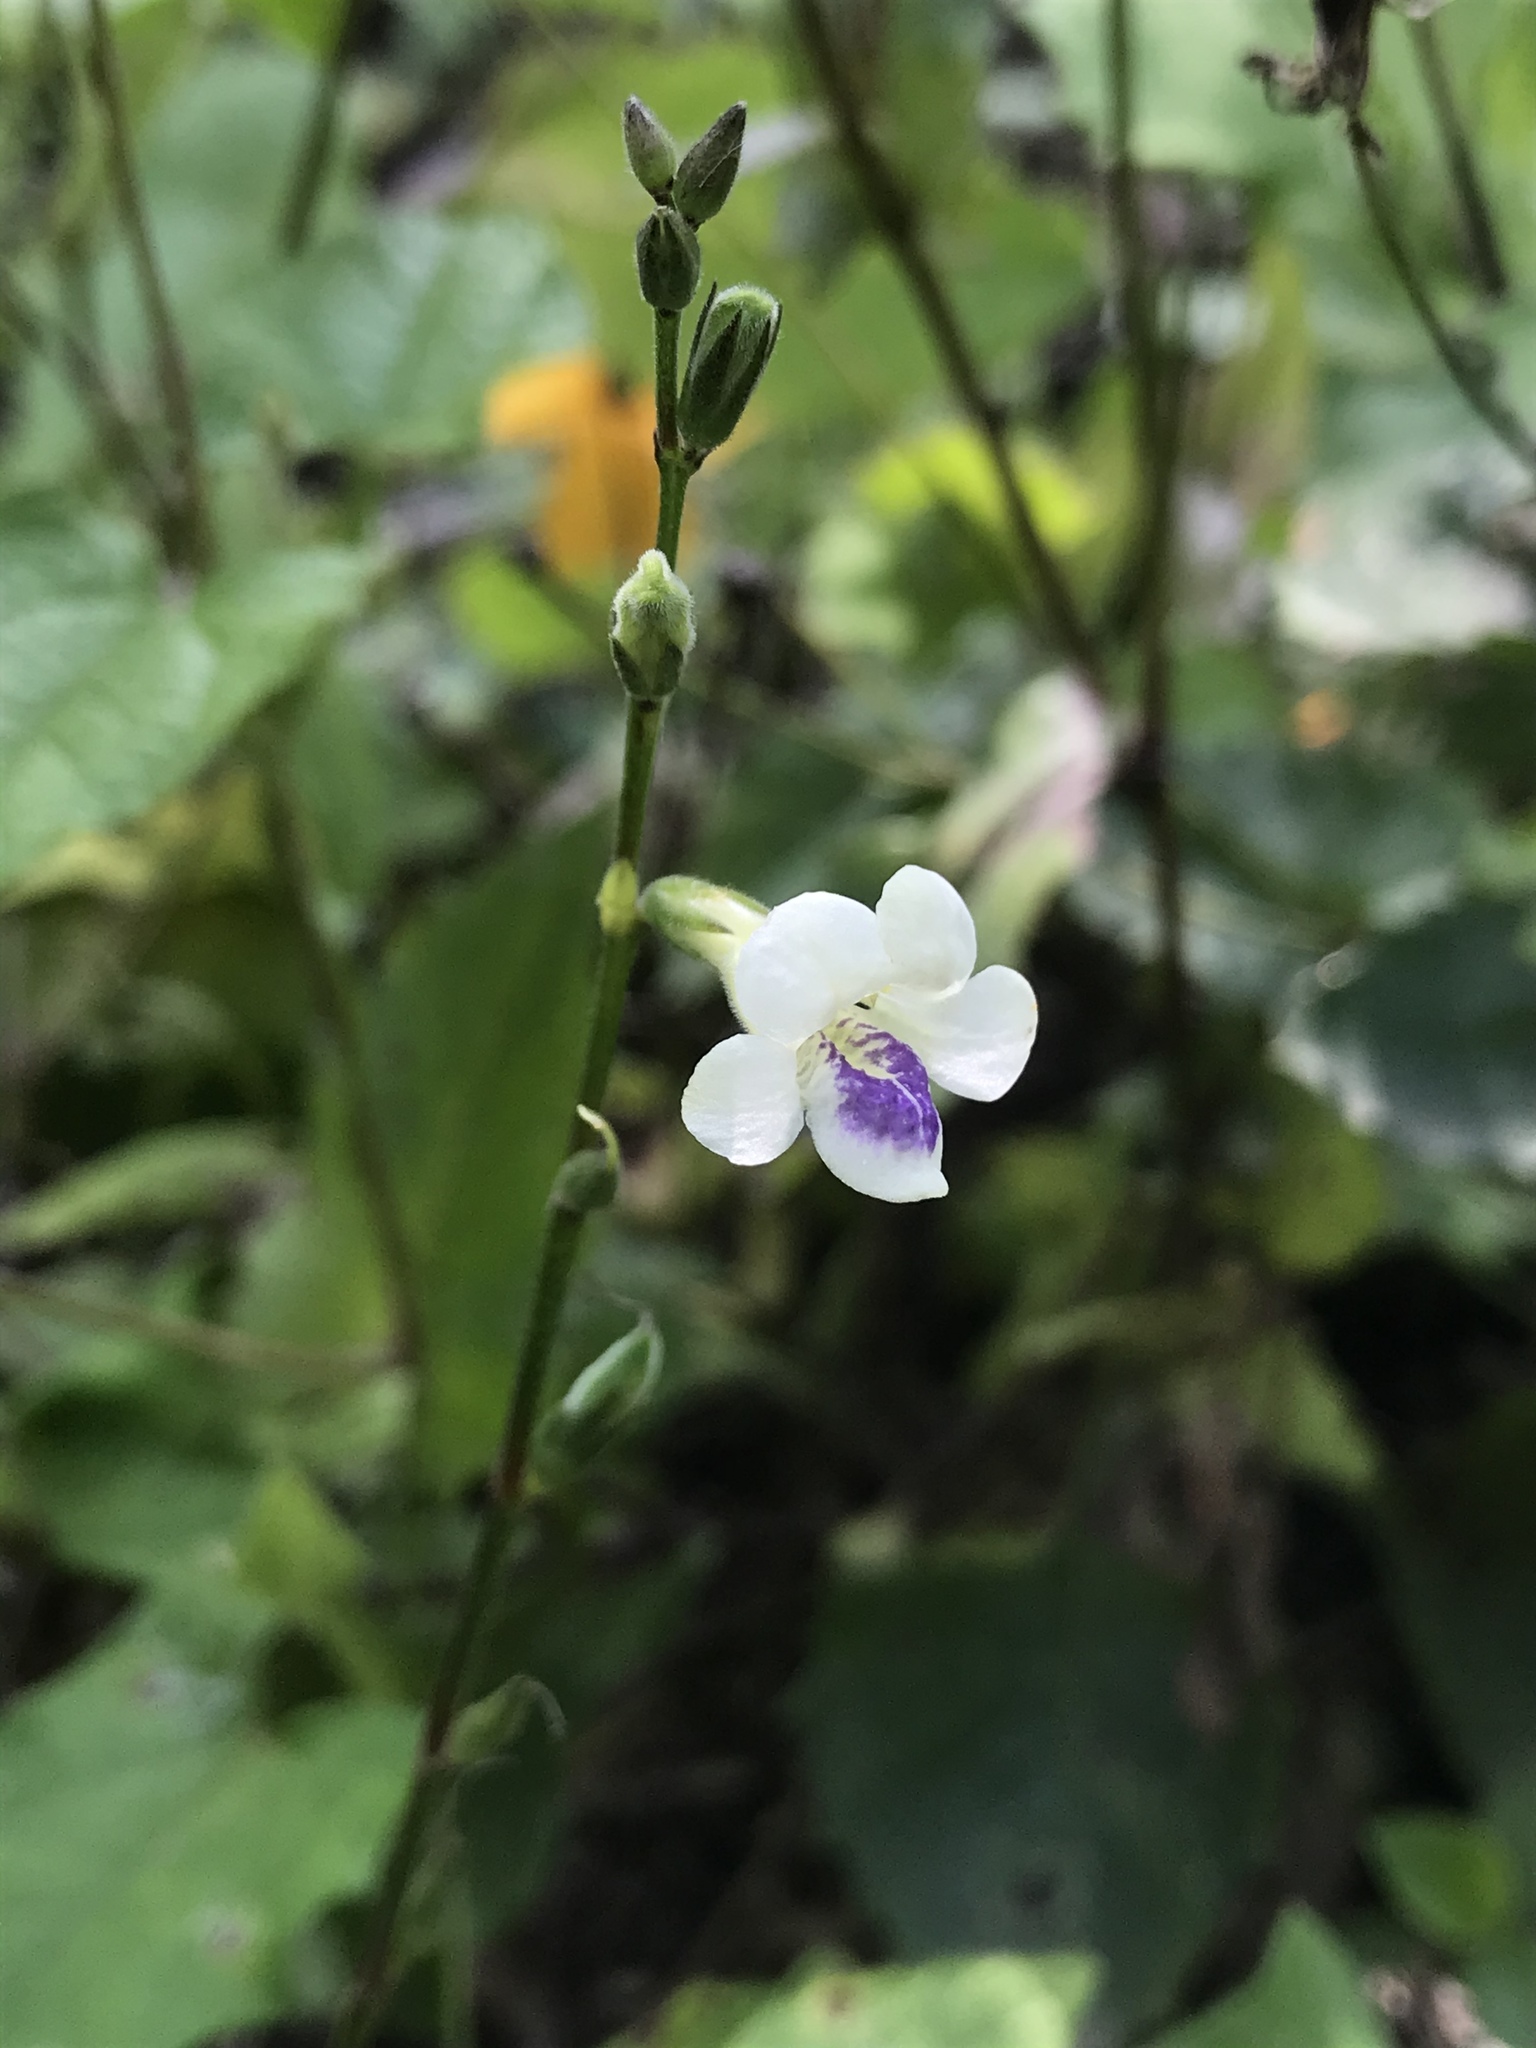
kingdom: Plantae
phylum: Tracheophyta
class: Magnoliopsida
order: Lamiales
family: Acanthaceae
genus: Asystasia
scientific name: Asystasia intrusa
